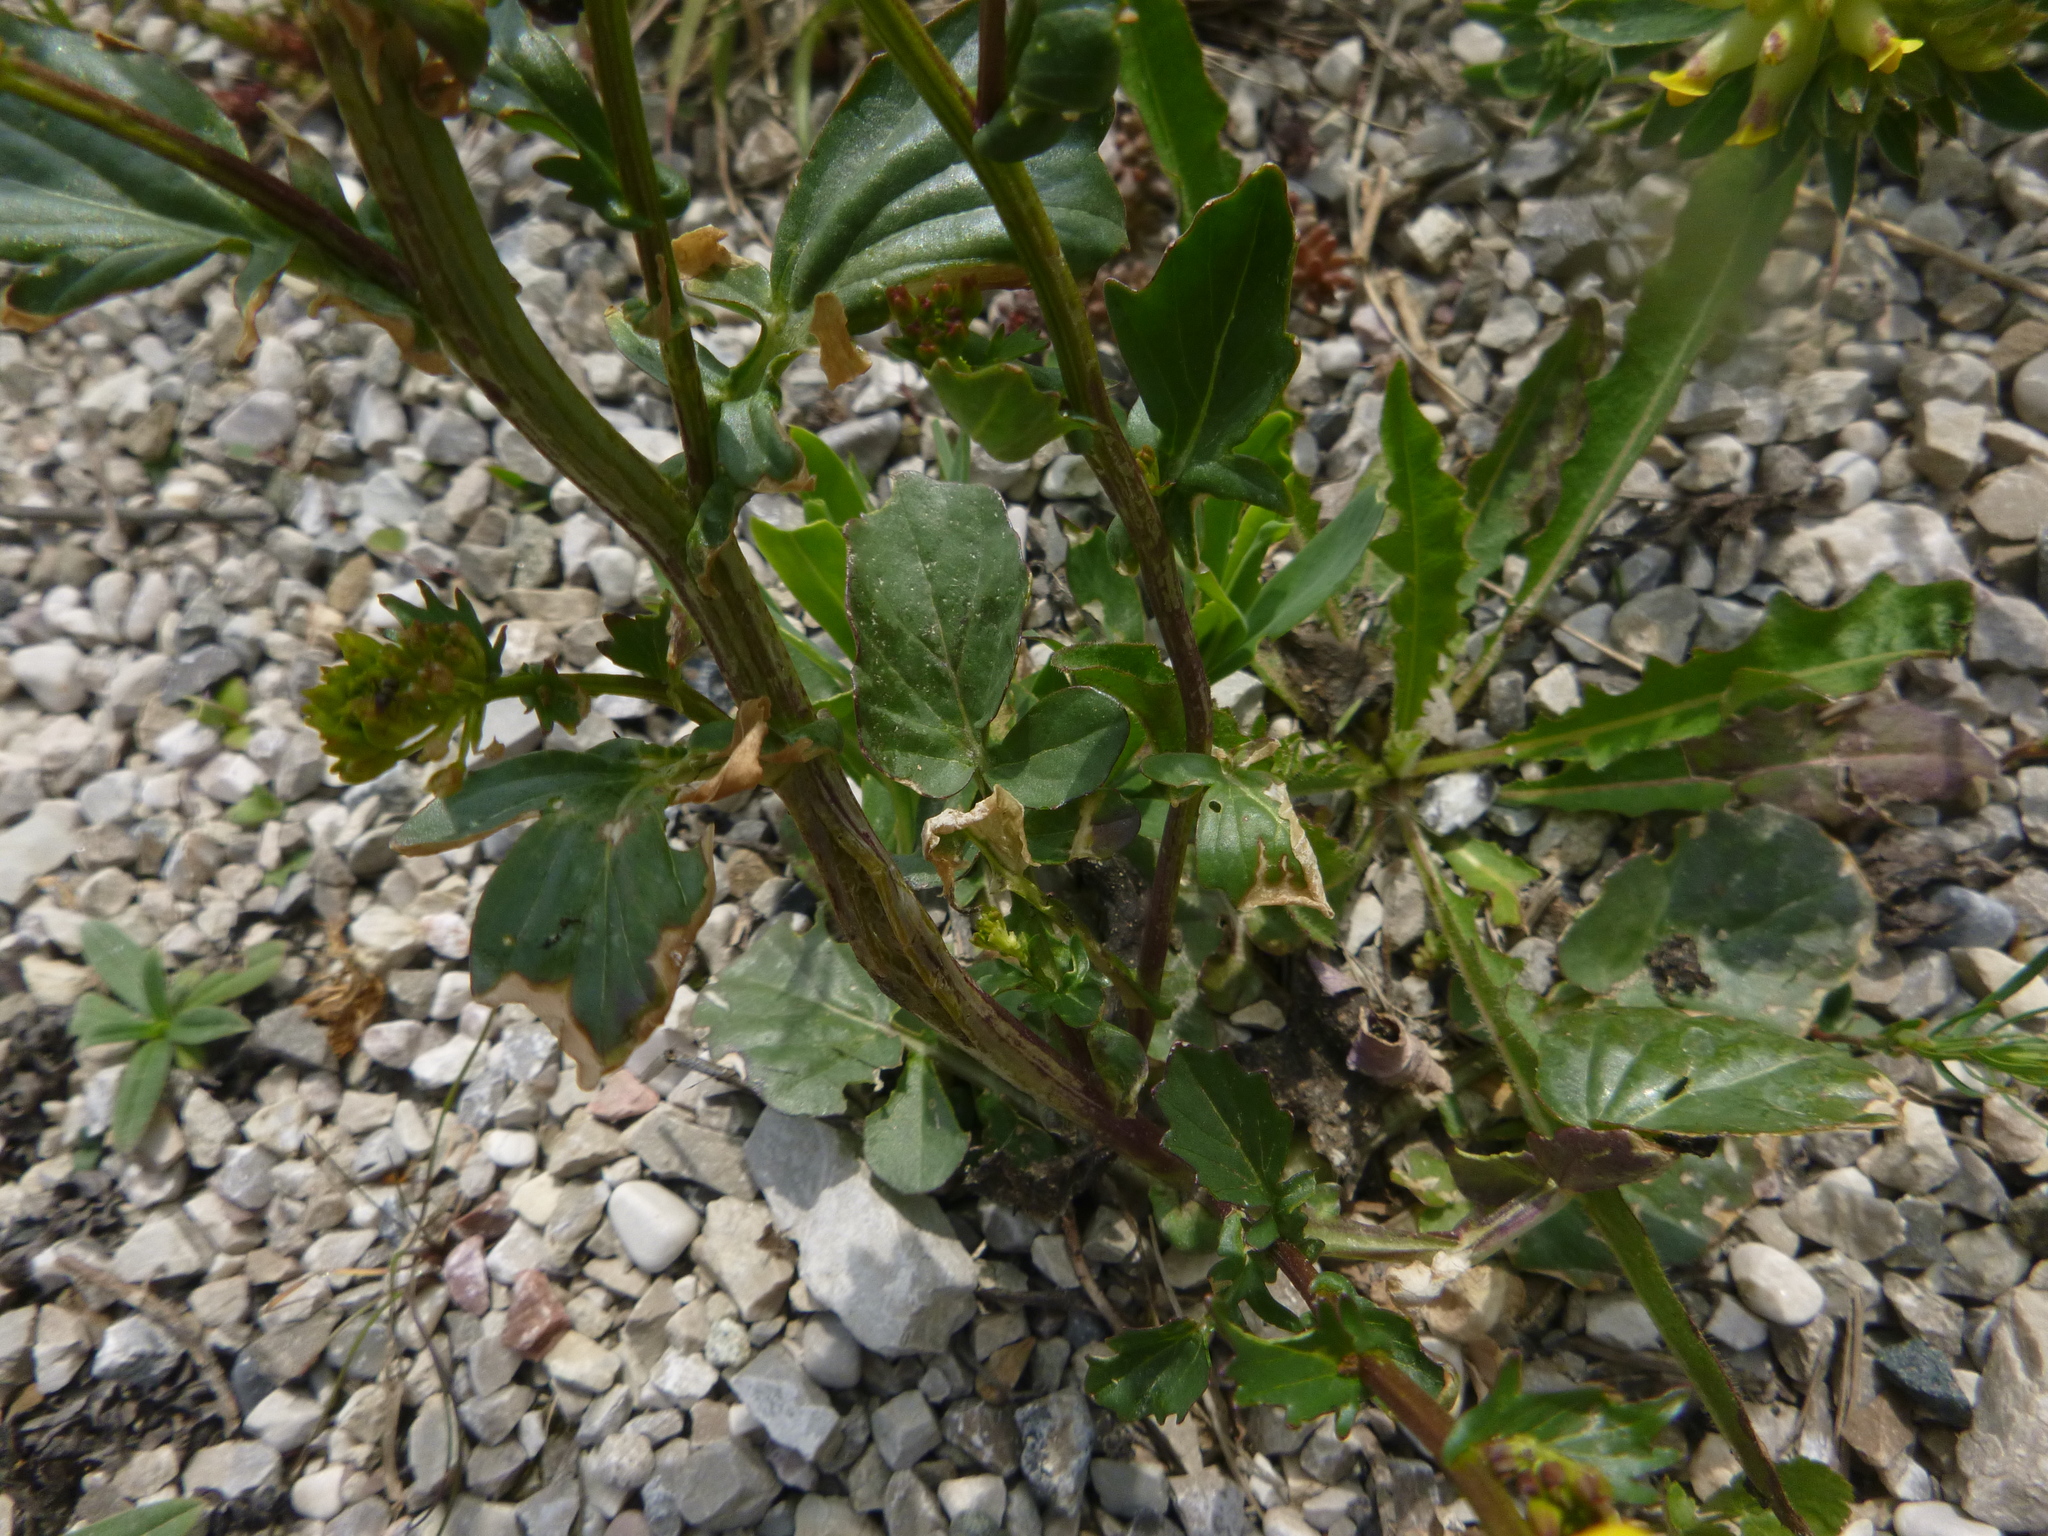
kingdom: Plantae
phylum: Tracheophyta
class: Magnoliopsida
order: Brassicales
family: Brassicaceae
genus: Barbarea
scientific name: Barbarea vulgaris
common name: Cressy-greens
